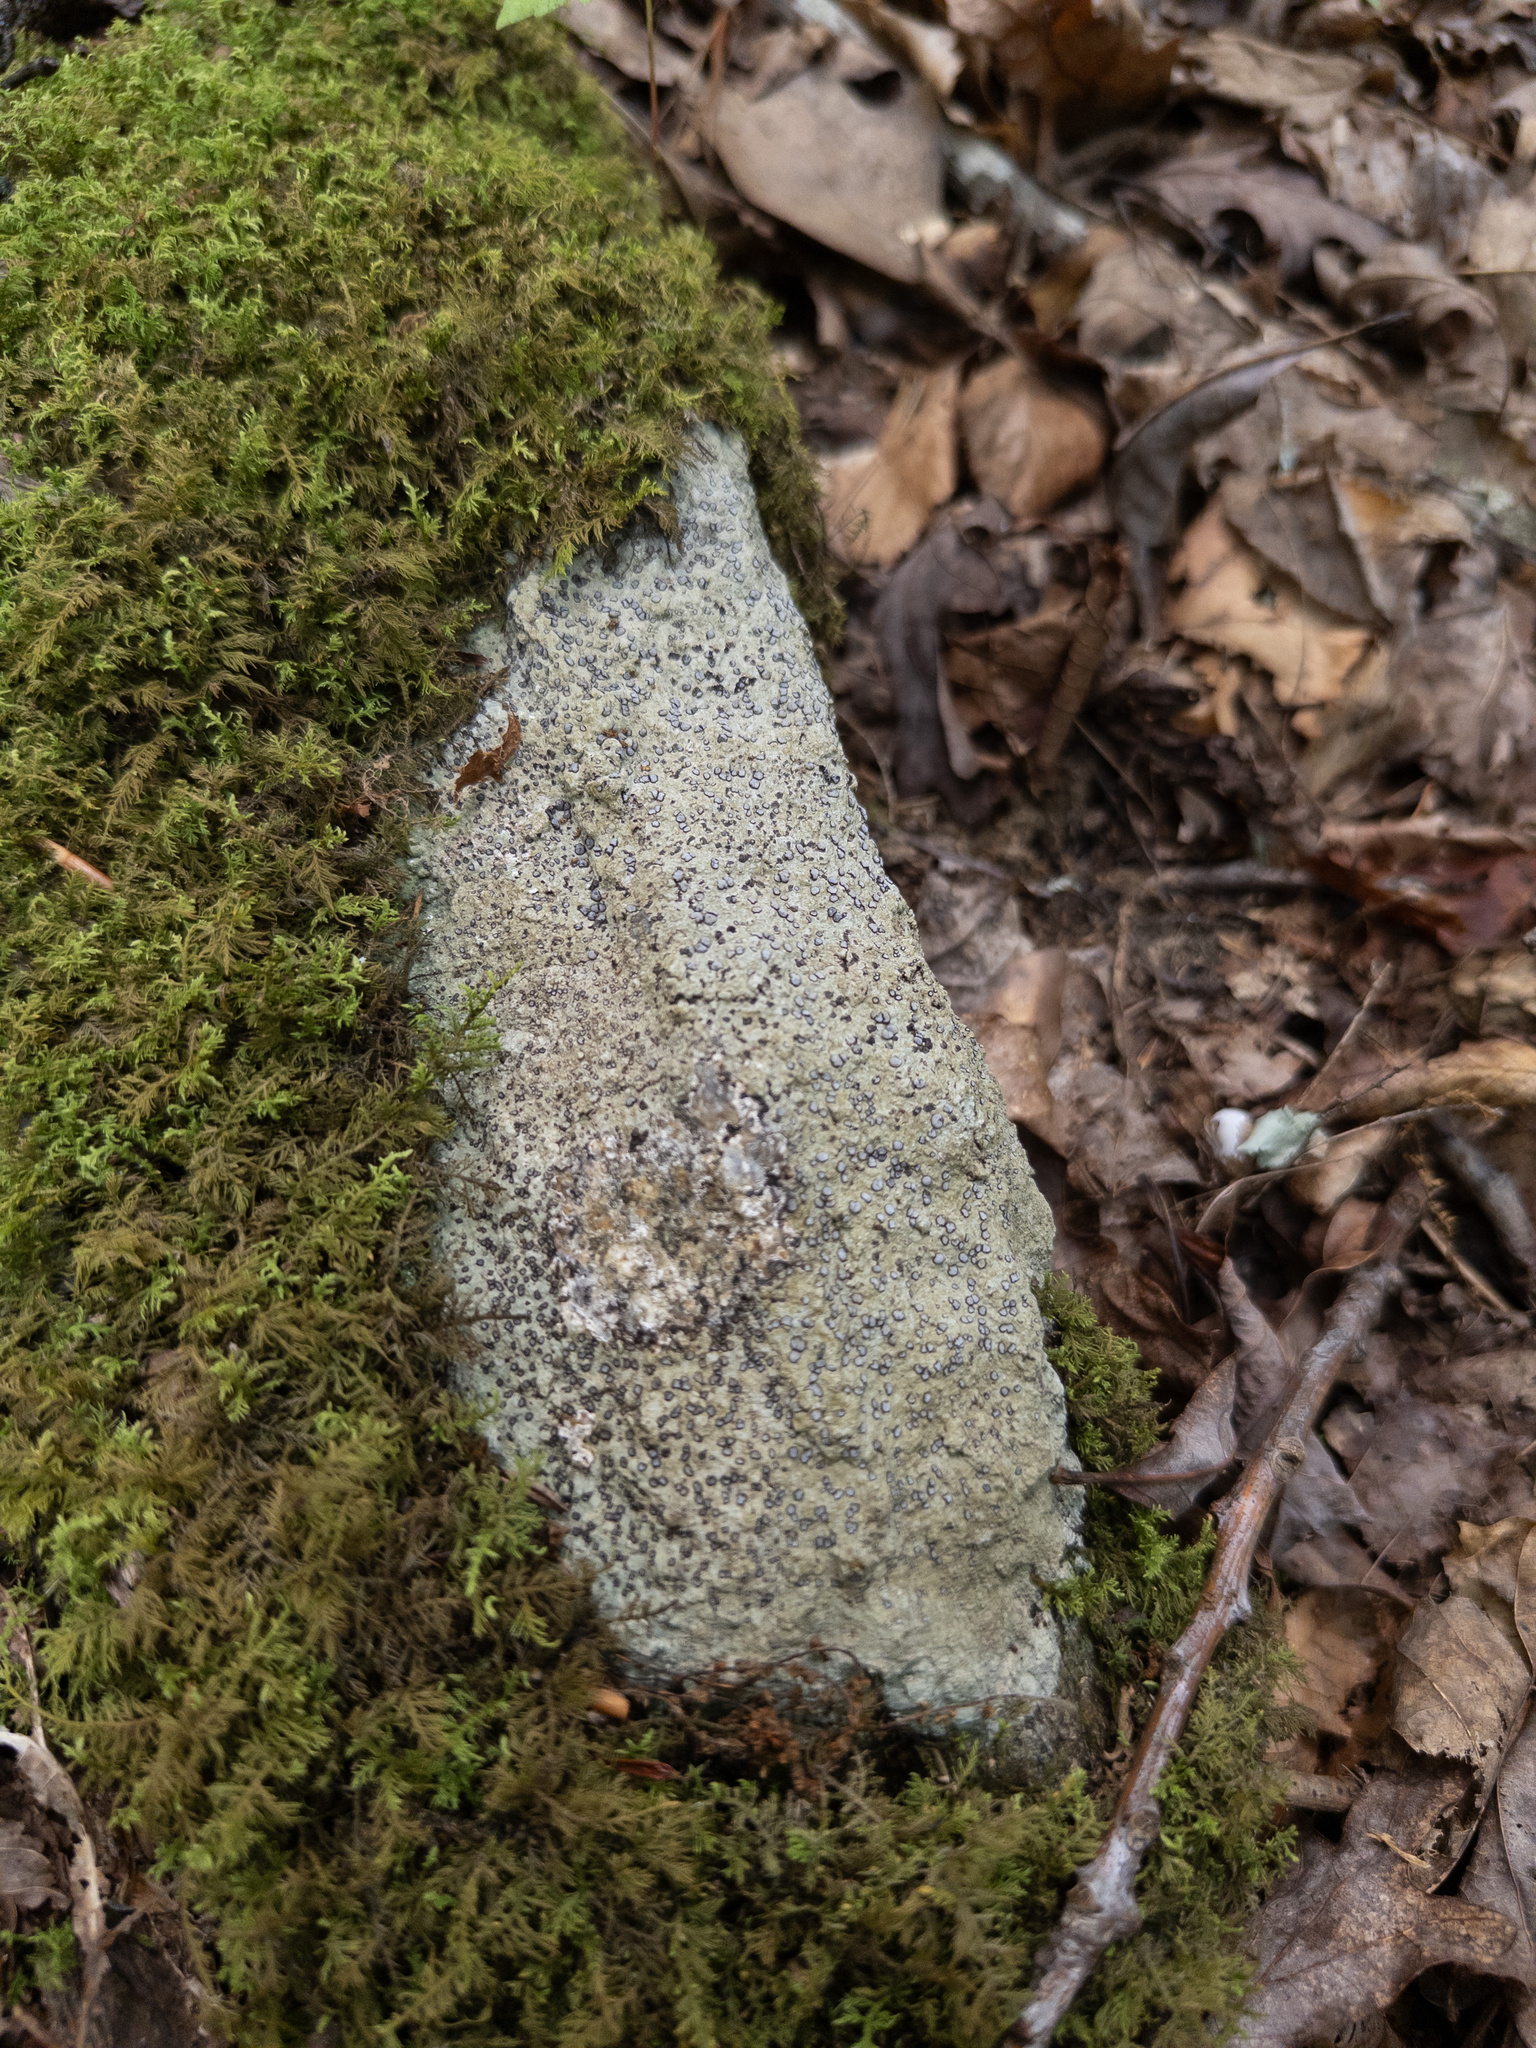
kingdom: Fungi
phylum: Ascomycota
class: Lecanoromycetes
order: Lecideales
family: Lecideaceae
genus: Porpidia
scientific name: Porpidia albocaerulescens
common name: Smokey-eyed boulder lichen
